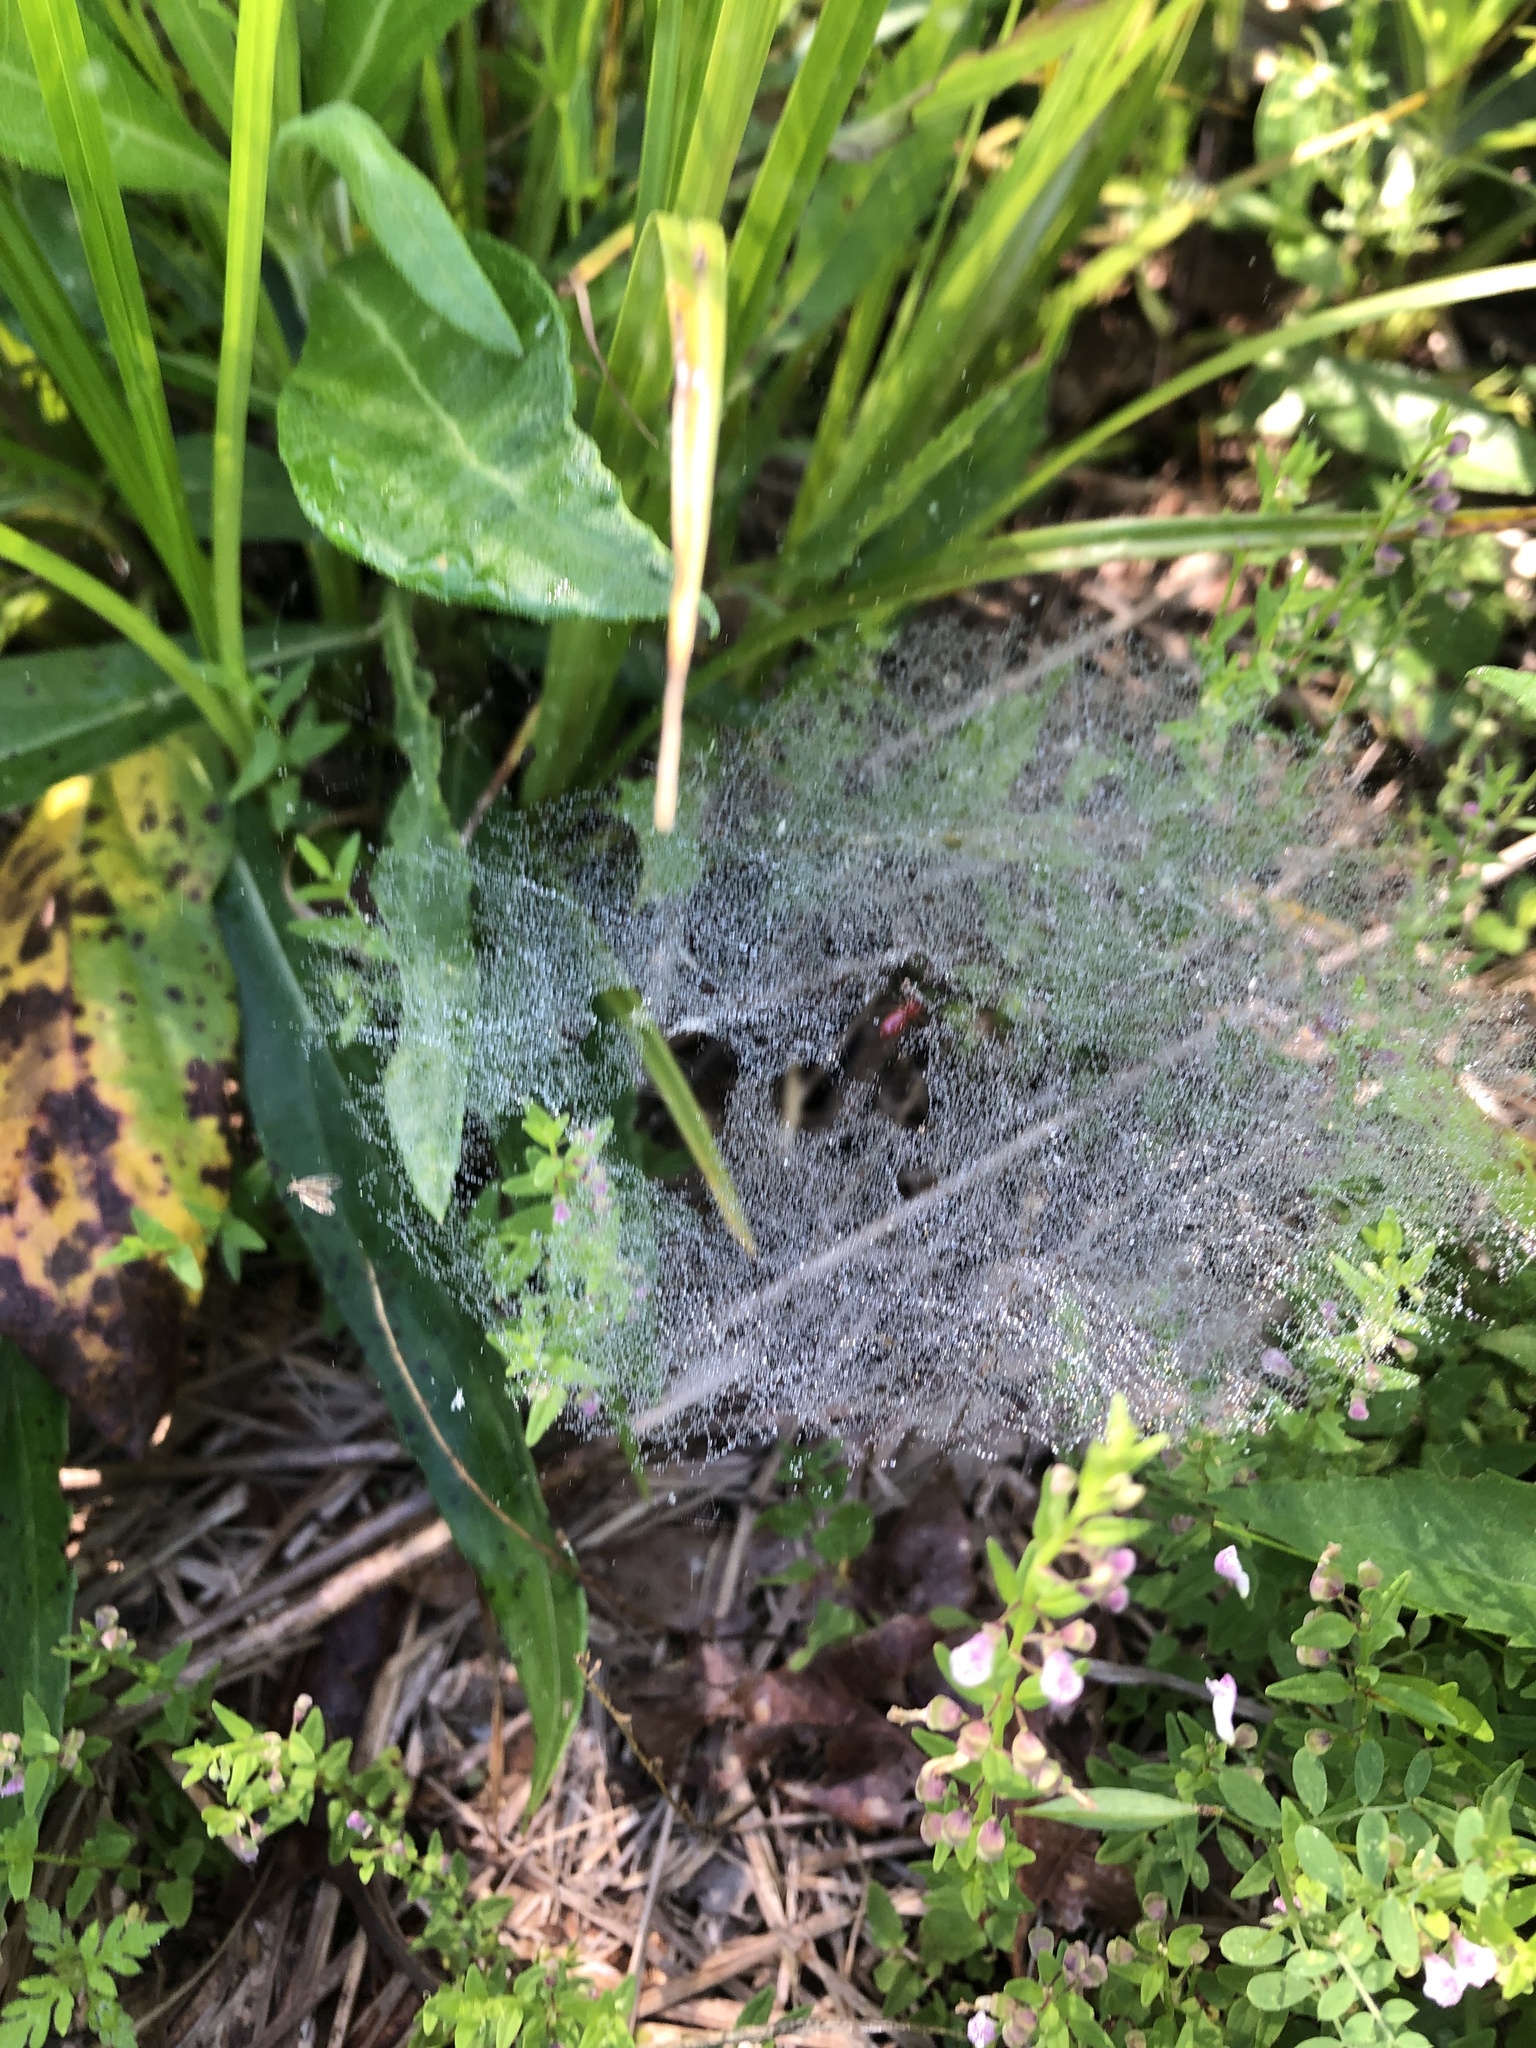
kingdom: Animalia
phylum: Arthropoda
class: Arachnida
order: Araneae
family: Linyphiidae
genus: Florinda
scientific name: Florinda coccinea
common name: Black-tailed red sheetweaver
